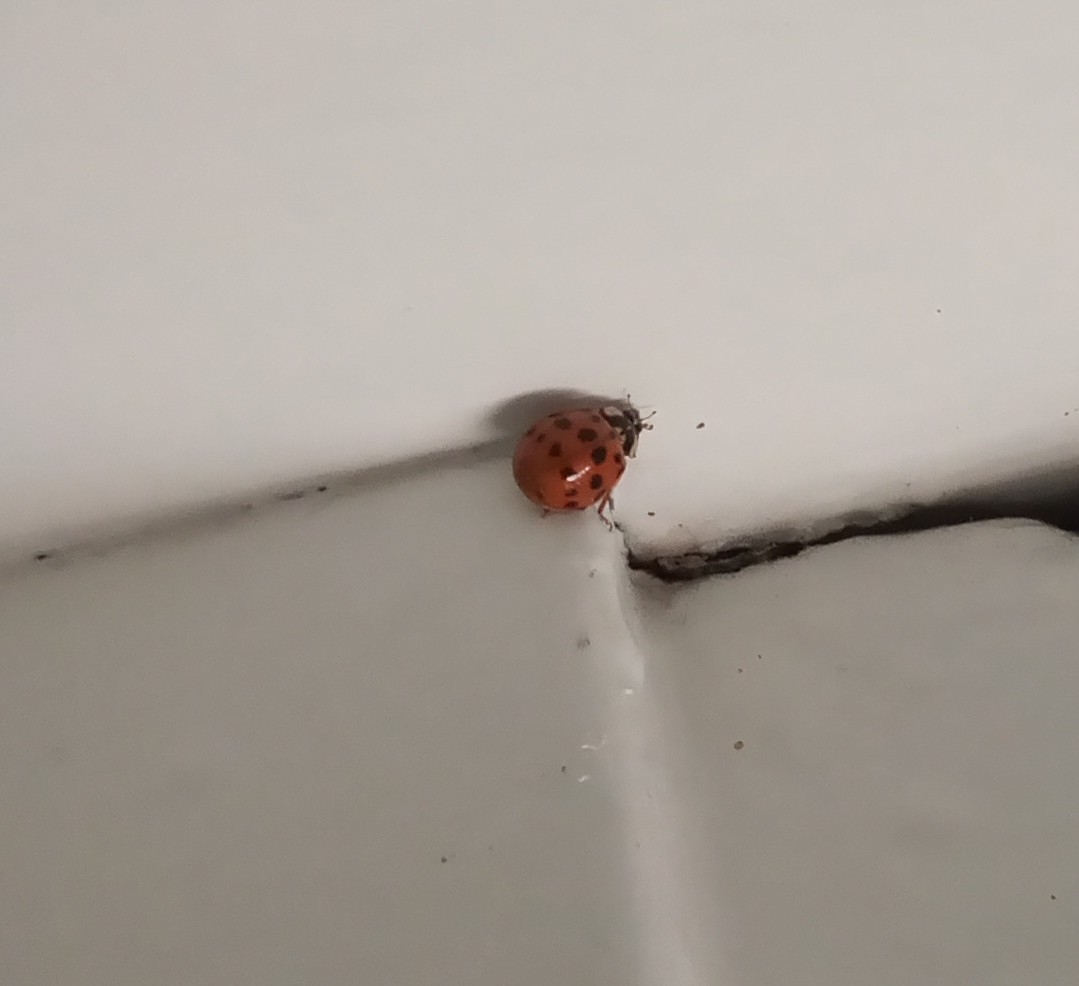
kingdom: Animalia
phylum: Arthropoda
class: Insecta
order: Coleoptera
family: Coccinellidae
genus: Harmonia
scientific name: Harmonia axyridis
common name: Harlequin ladybird
